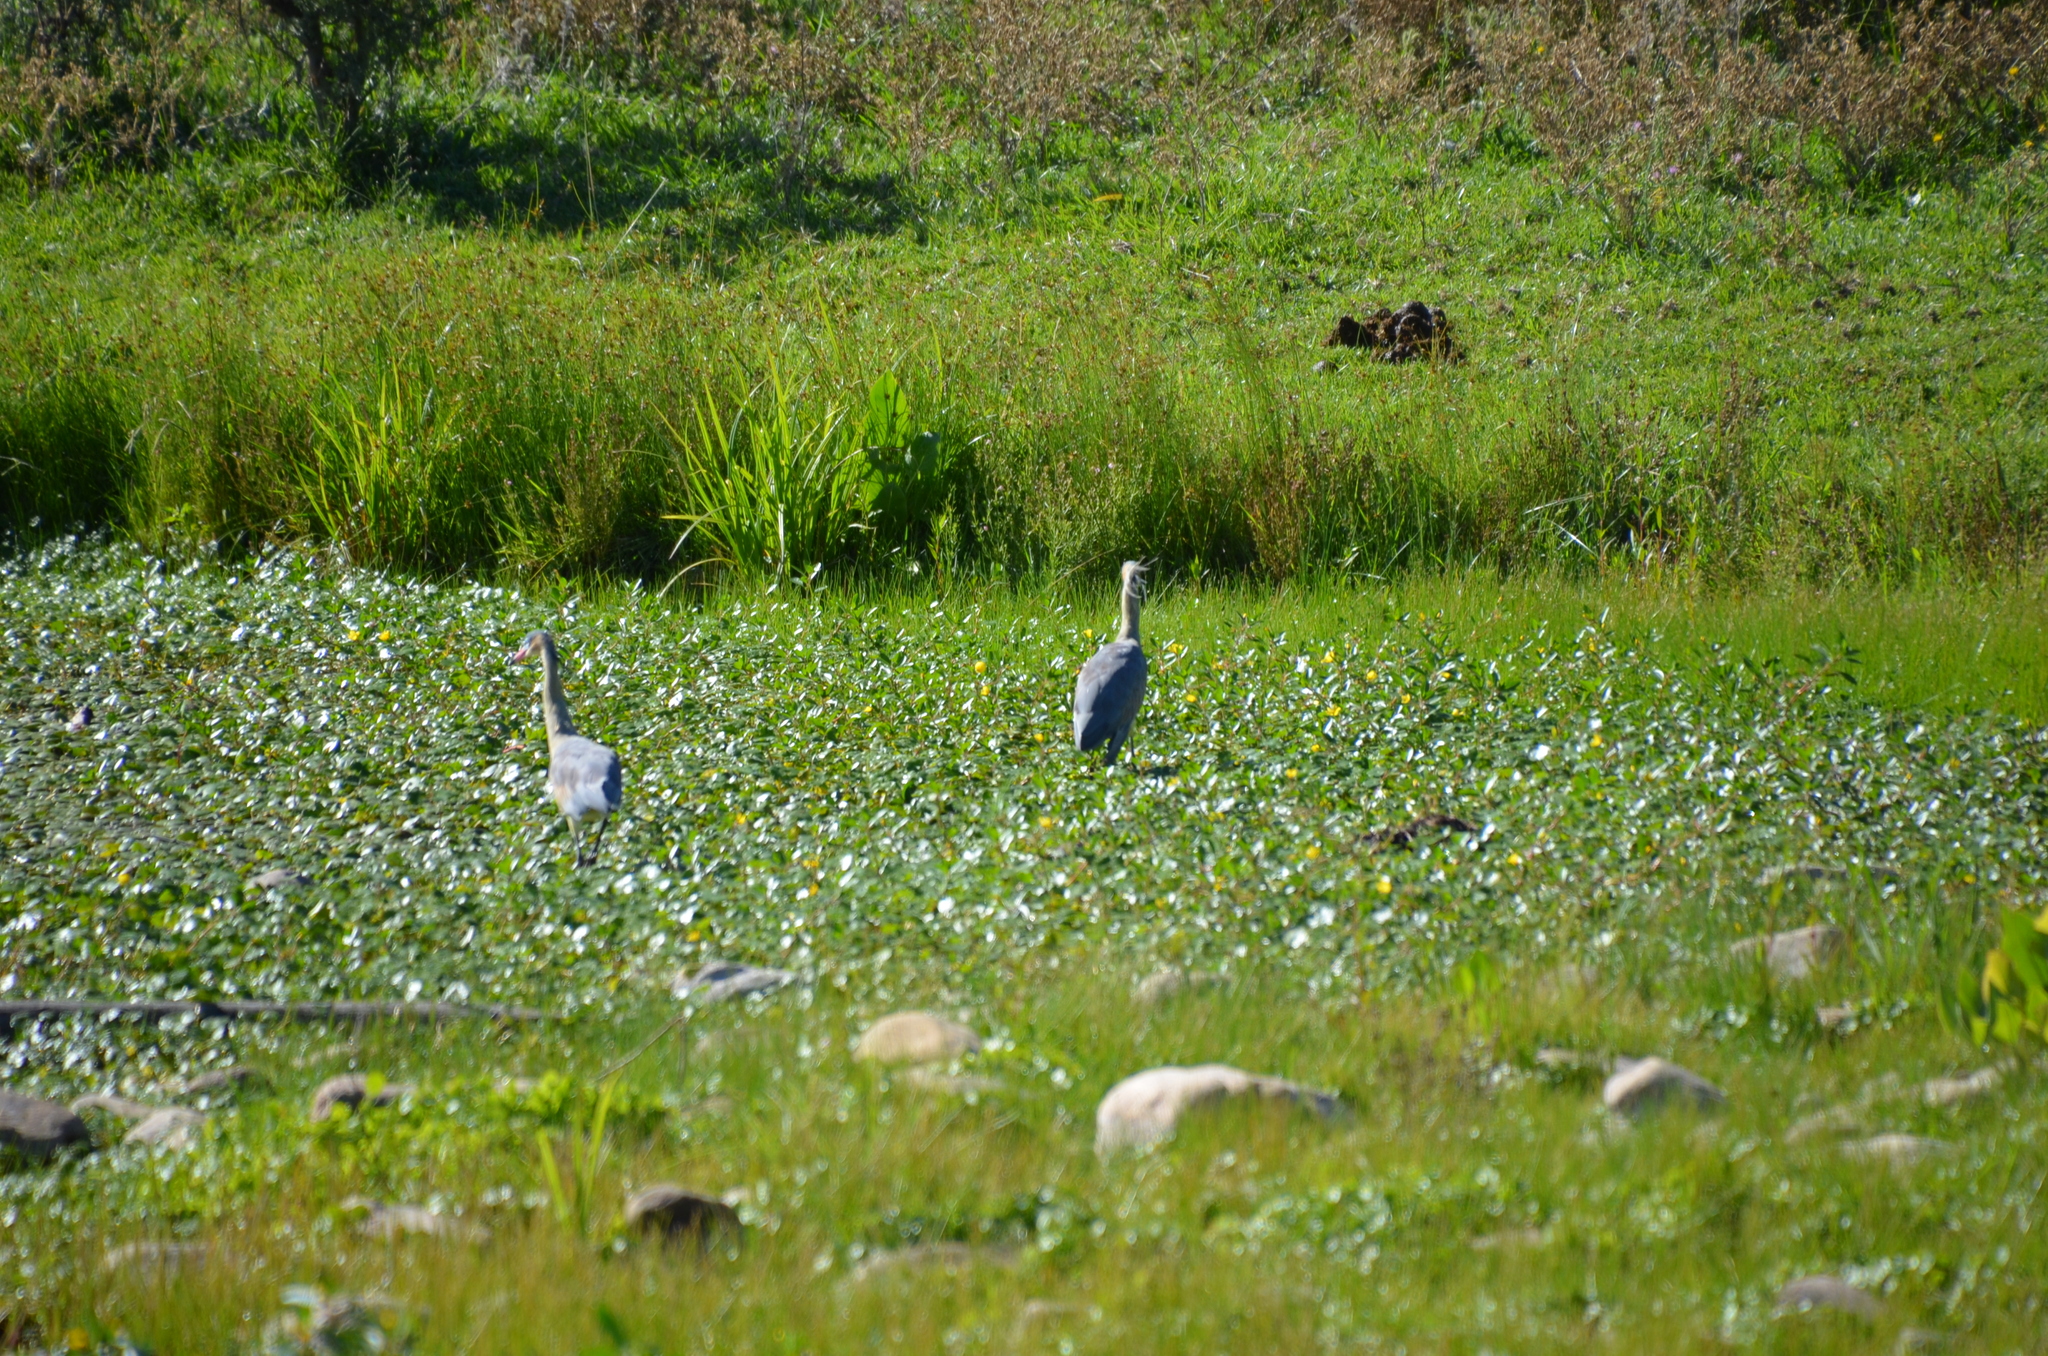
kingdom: Animalia
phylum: Chordata
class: Aves
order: Pelecaniformes
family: Ardeidae
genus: Syrigma
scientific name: Syrigma sibilatrix
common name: Whistling heron
